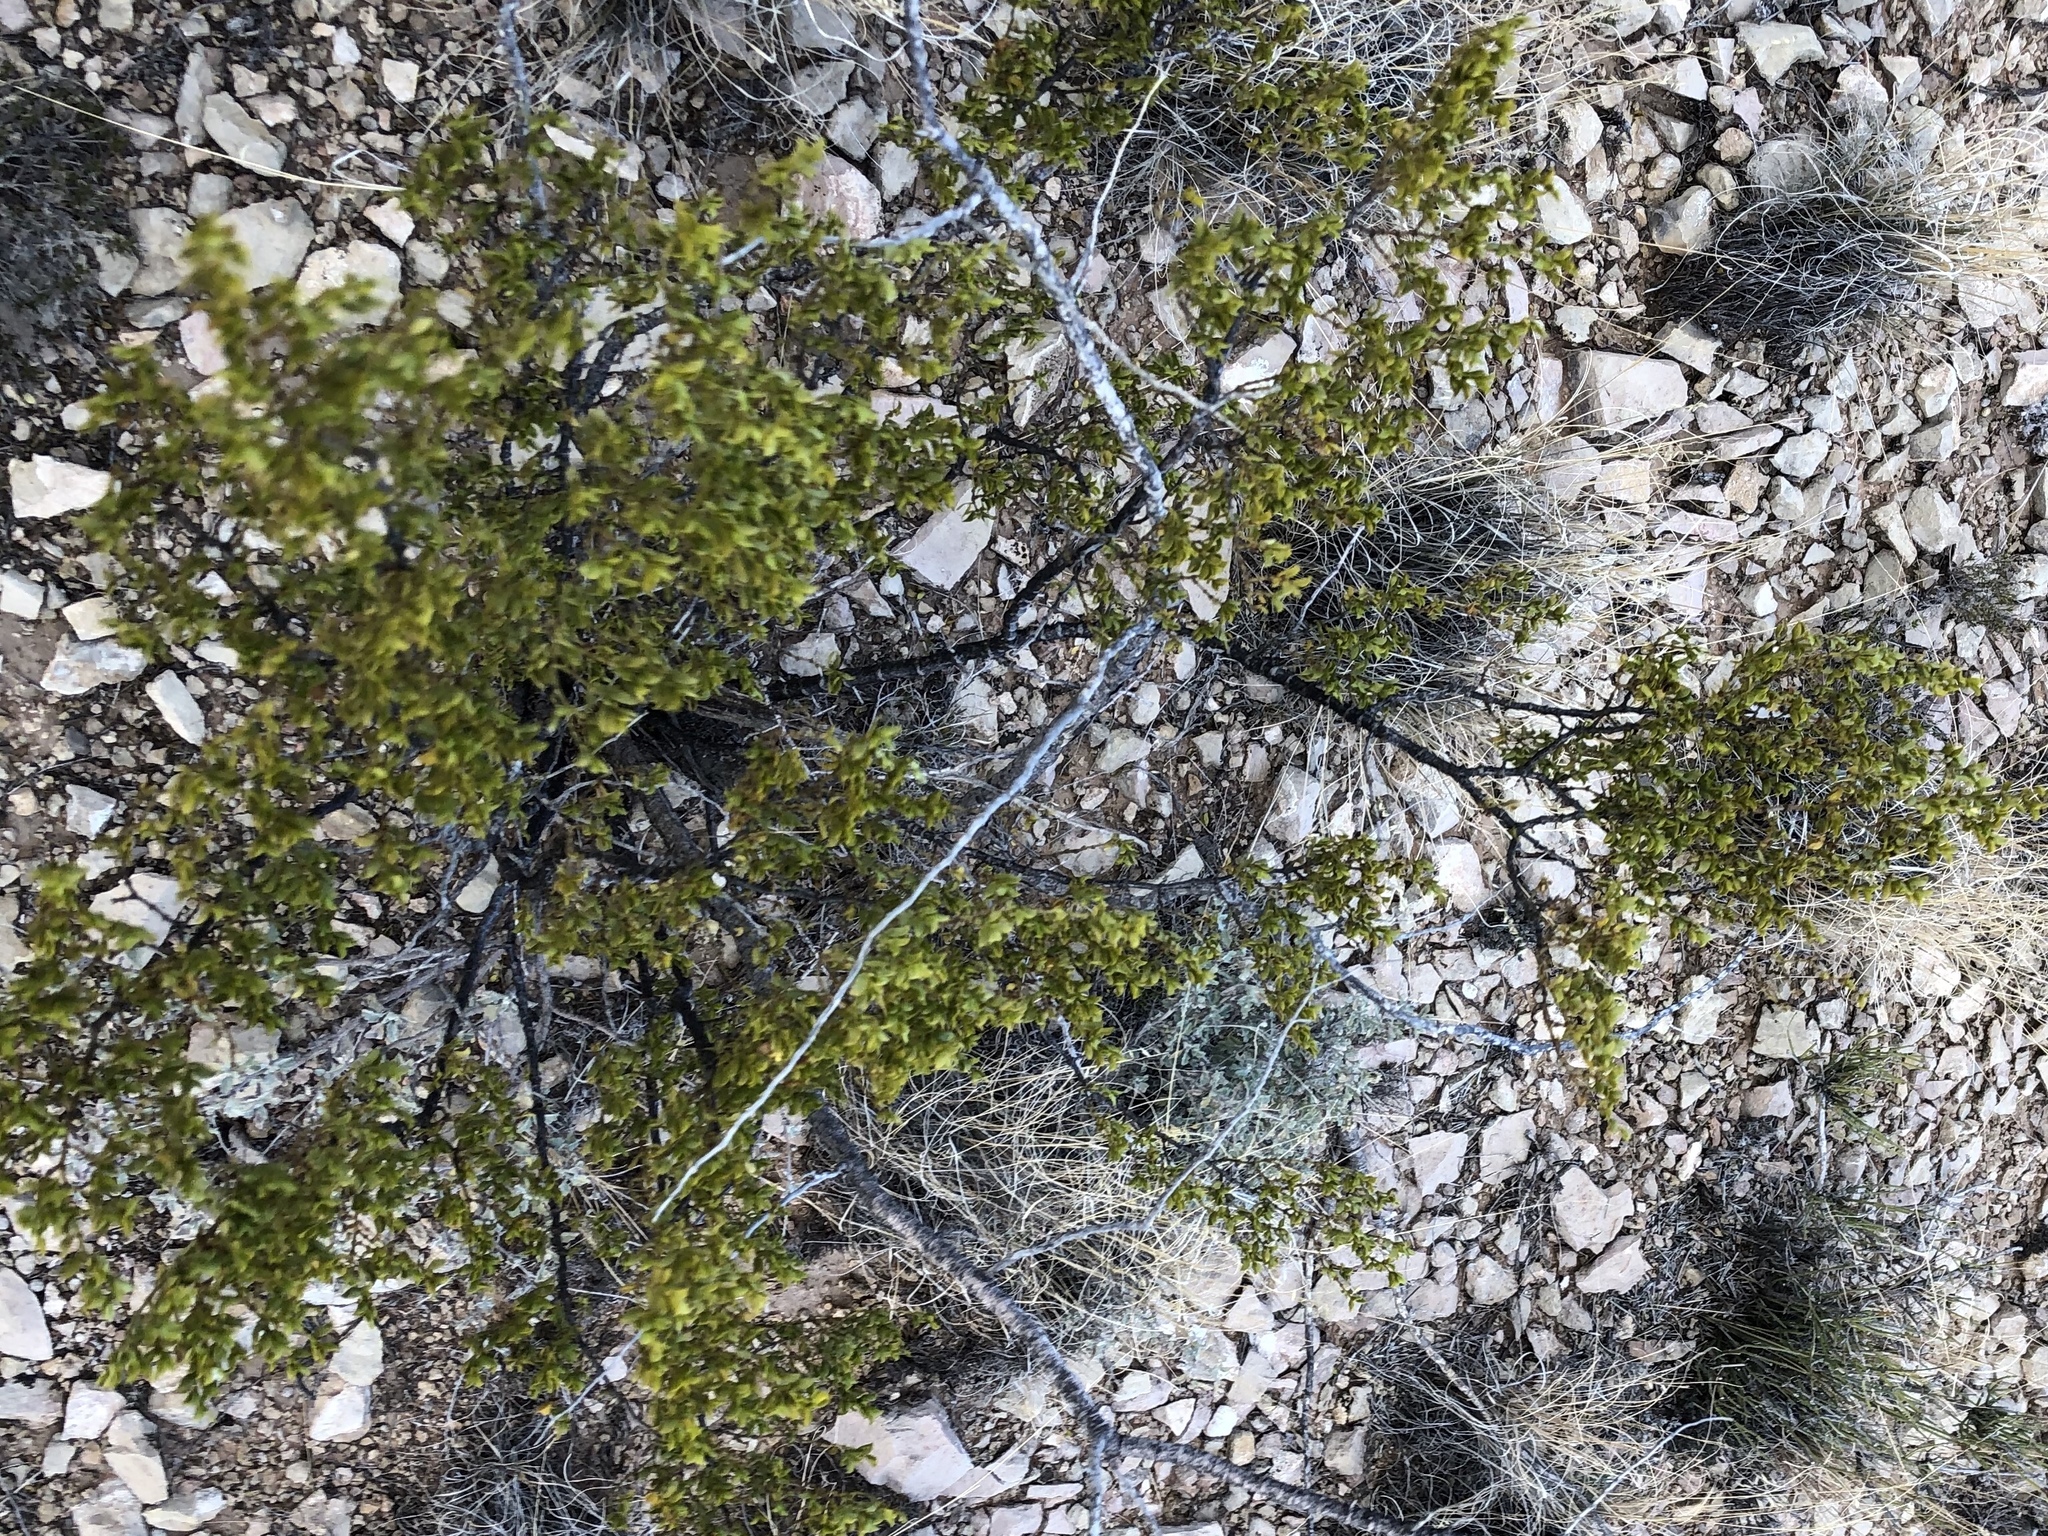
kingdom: Plantae
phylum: Tracheophyta
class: Magnoliopsida
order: Zygophyllales
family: Zygophyllaceae
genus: Larrea
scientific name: Larrea tridentata
